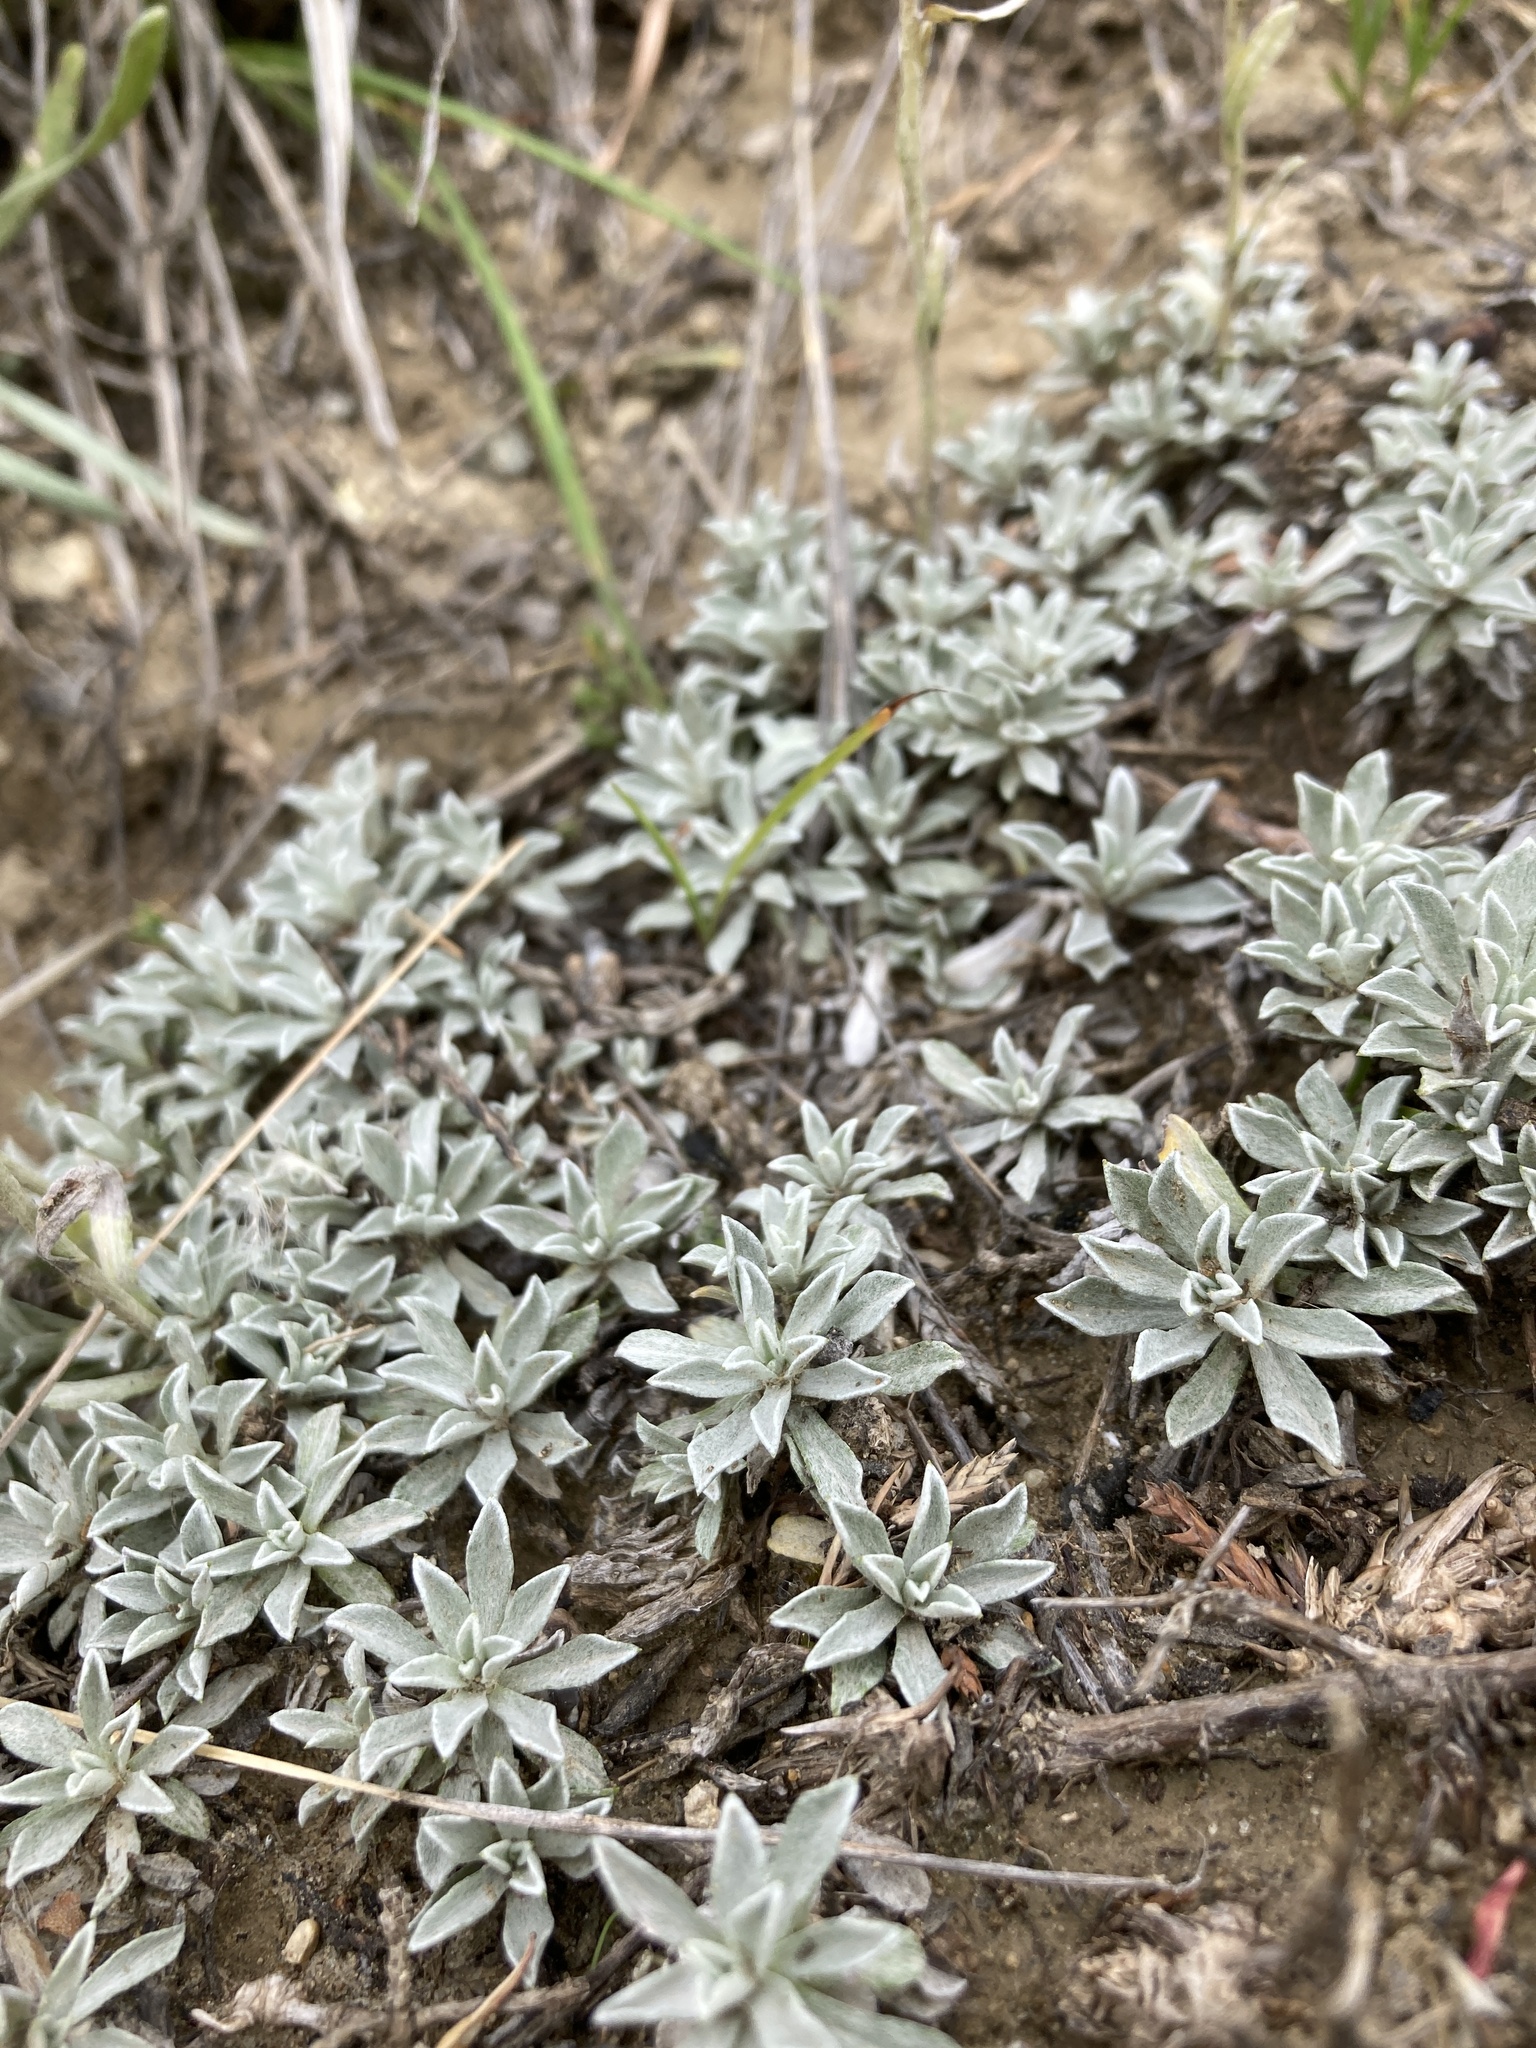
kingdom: Plantae
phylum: Tracheophyta
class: Magnoliopsida
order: Asterales
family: Asteraceae
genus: Antennaria
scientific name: Antennaria parvifolia
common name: Nuttall's pussytoes
